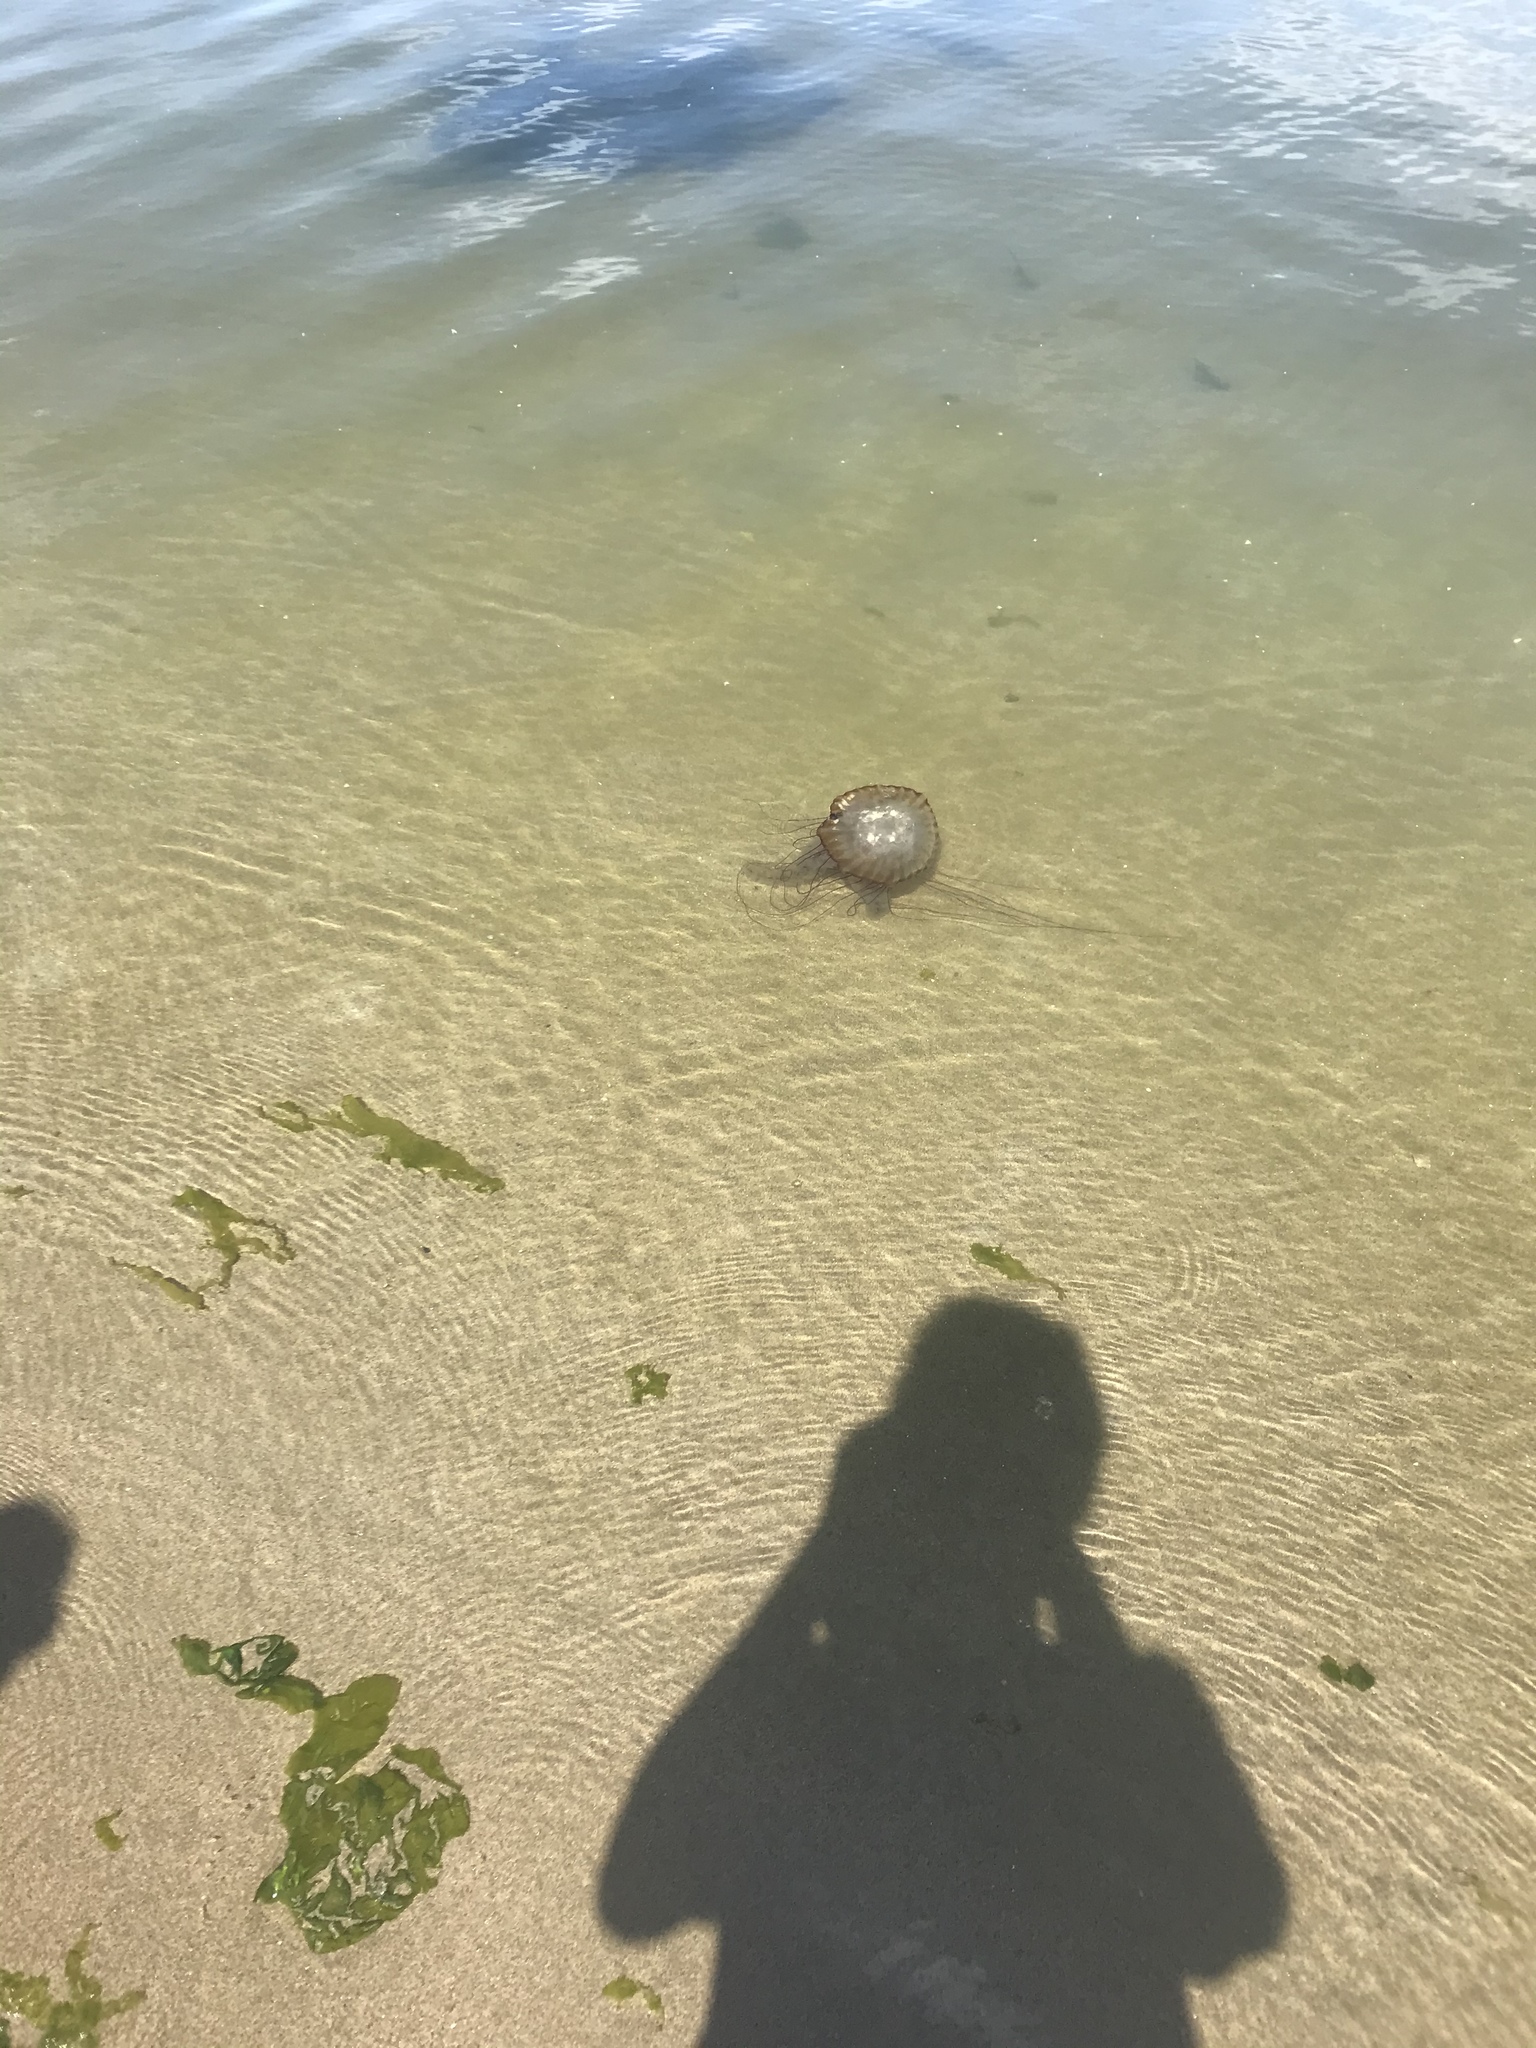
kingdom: Animalia
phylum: Cnidaria
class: Scyphozoa
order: Semaeostomeae
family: Pelagiidae
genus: Chrysaora
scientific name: Chrysaora fuscescens
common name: Sea nettle
